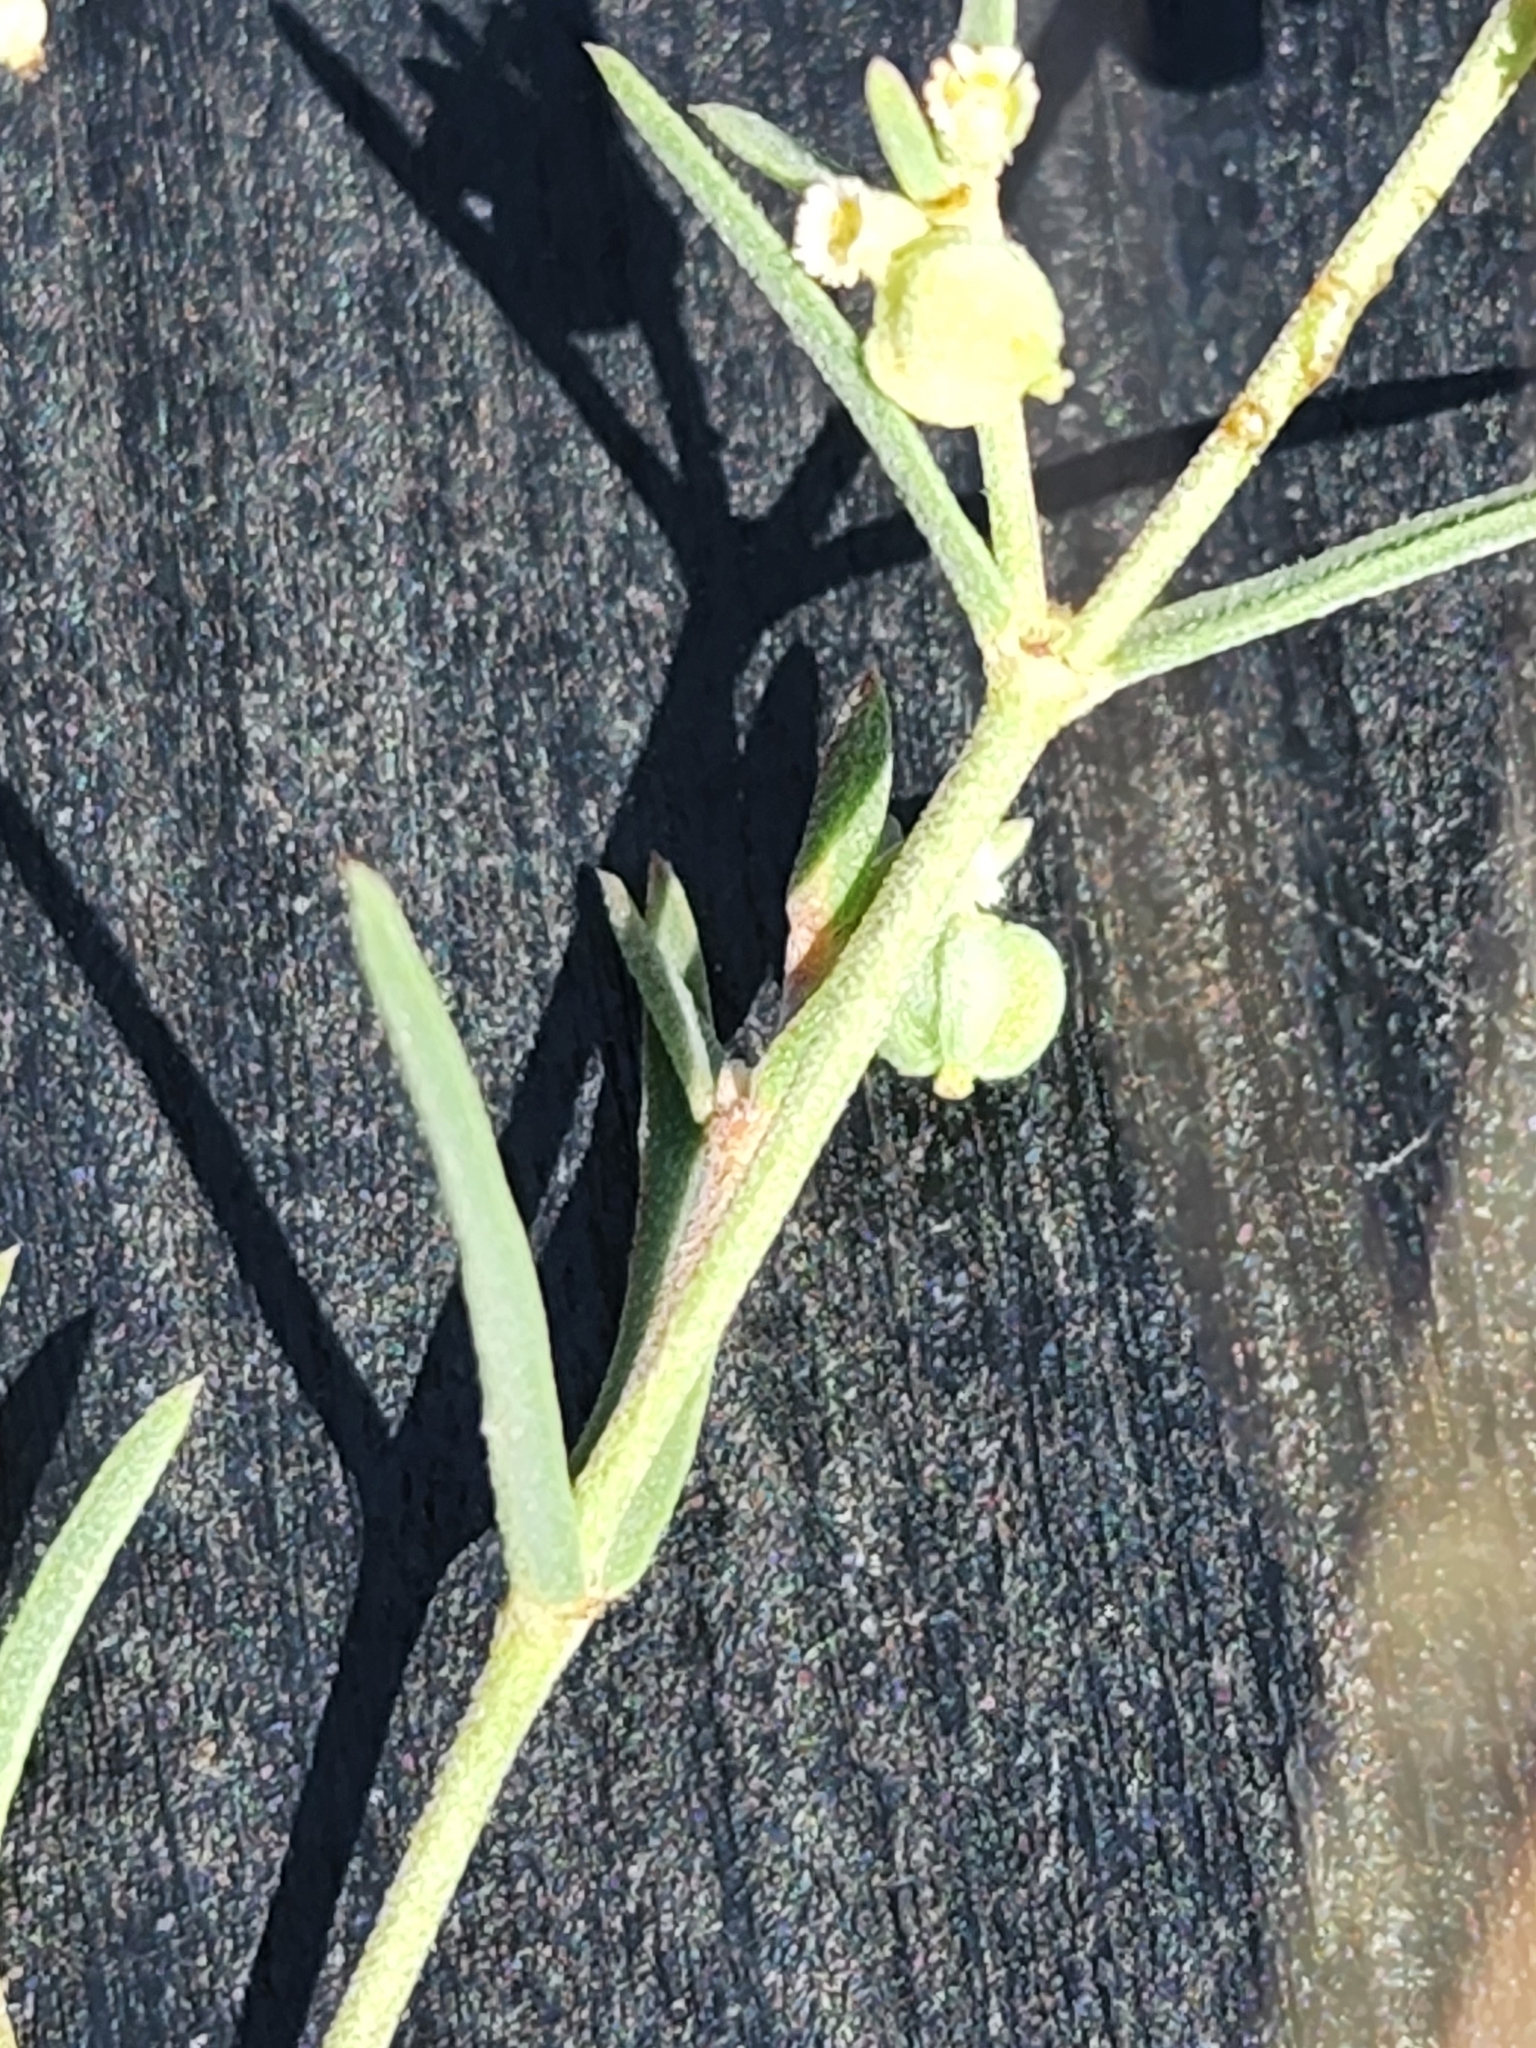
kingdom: Plantae
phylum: Tracheophyta
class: Magnoliopsida
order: Malpighiales
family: Euphorbiaceae
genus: Euphorbia
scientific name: Euphorbia angusta
